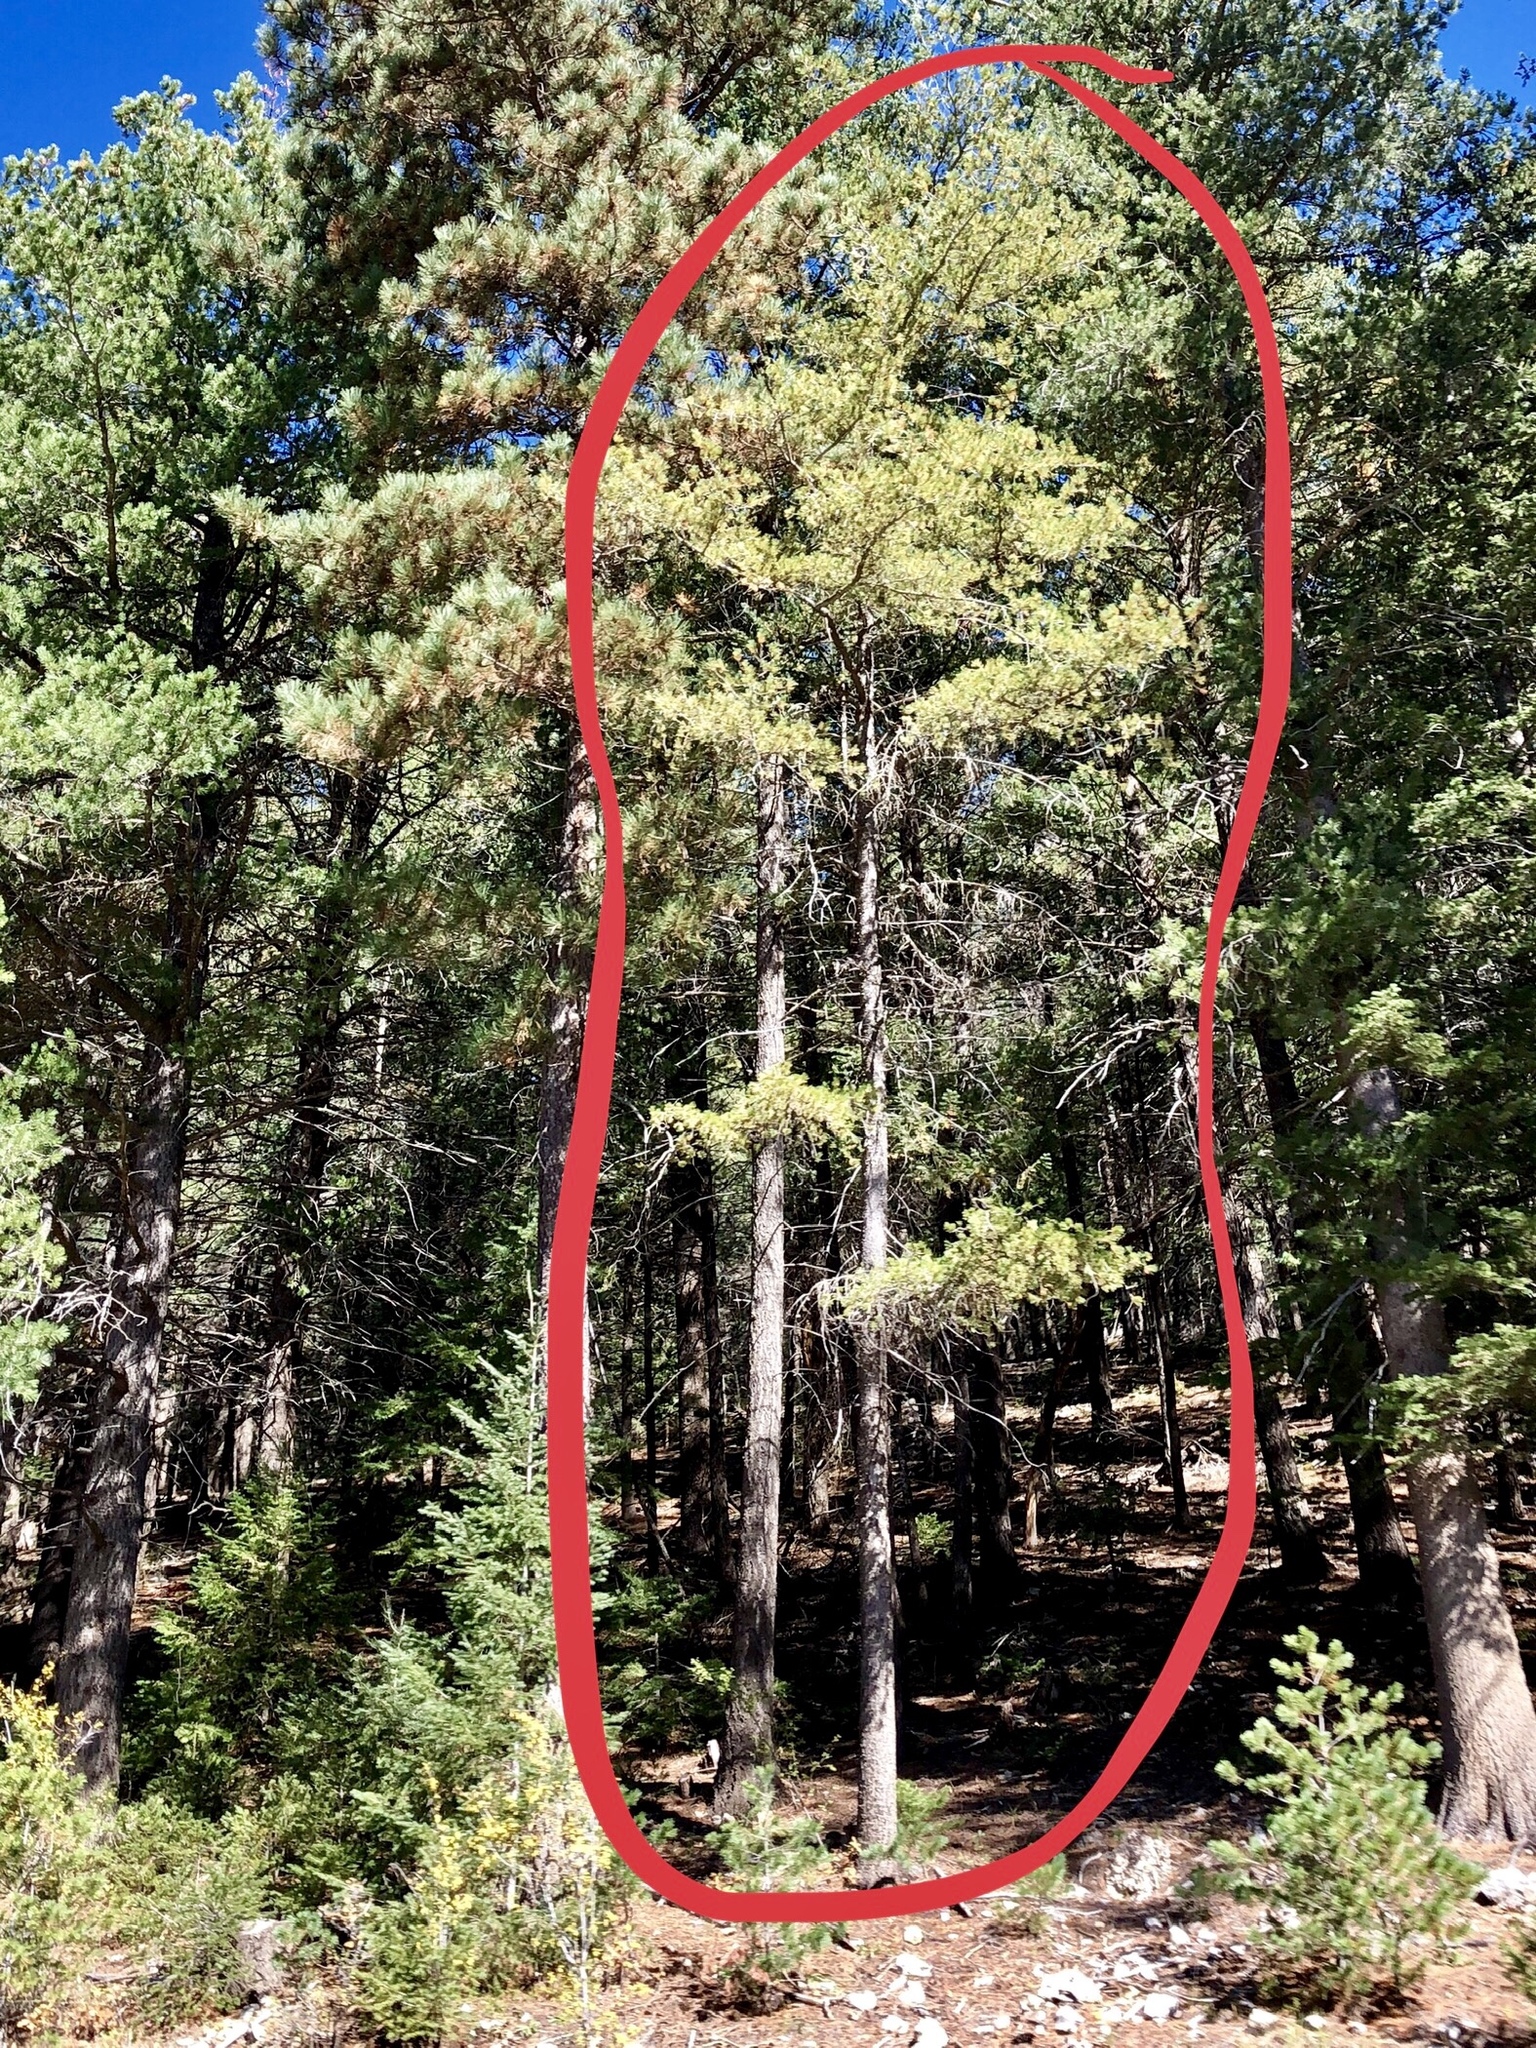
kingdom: Plantae
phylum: Tracheophyta
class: Magnoliopsida
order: Malpighiales
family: Salicaceae
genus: Populus
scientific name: Populus tremuloides
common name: Quaking aspen
